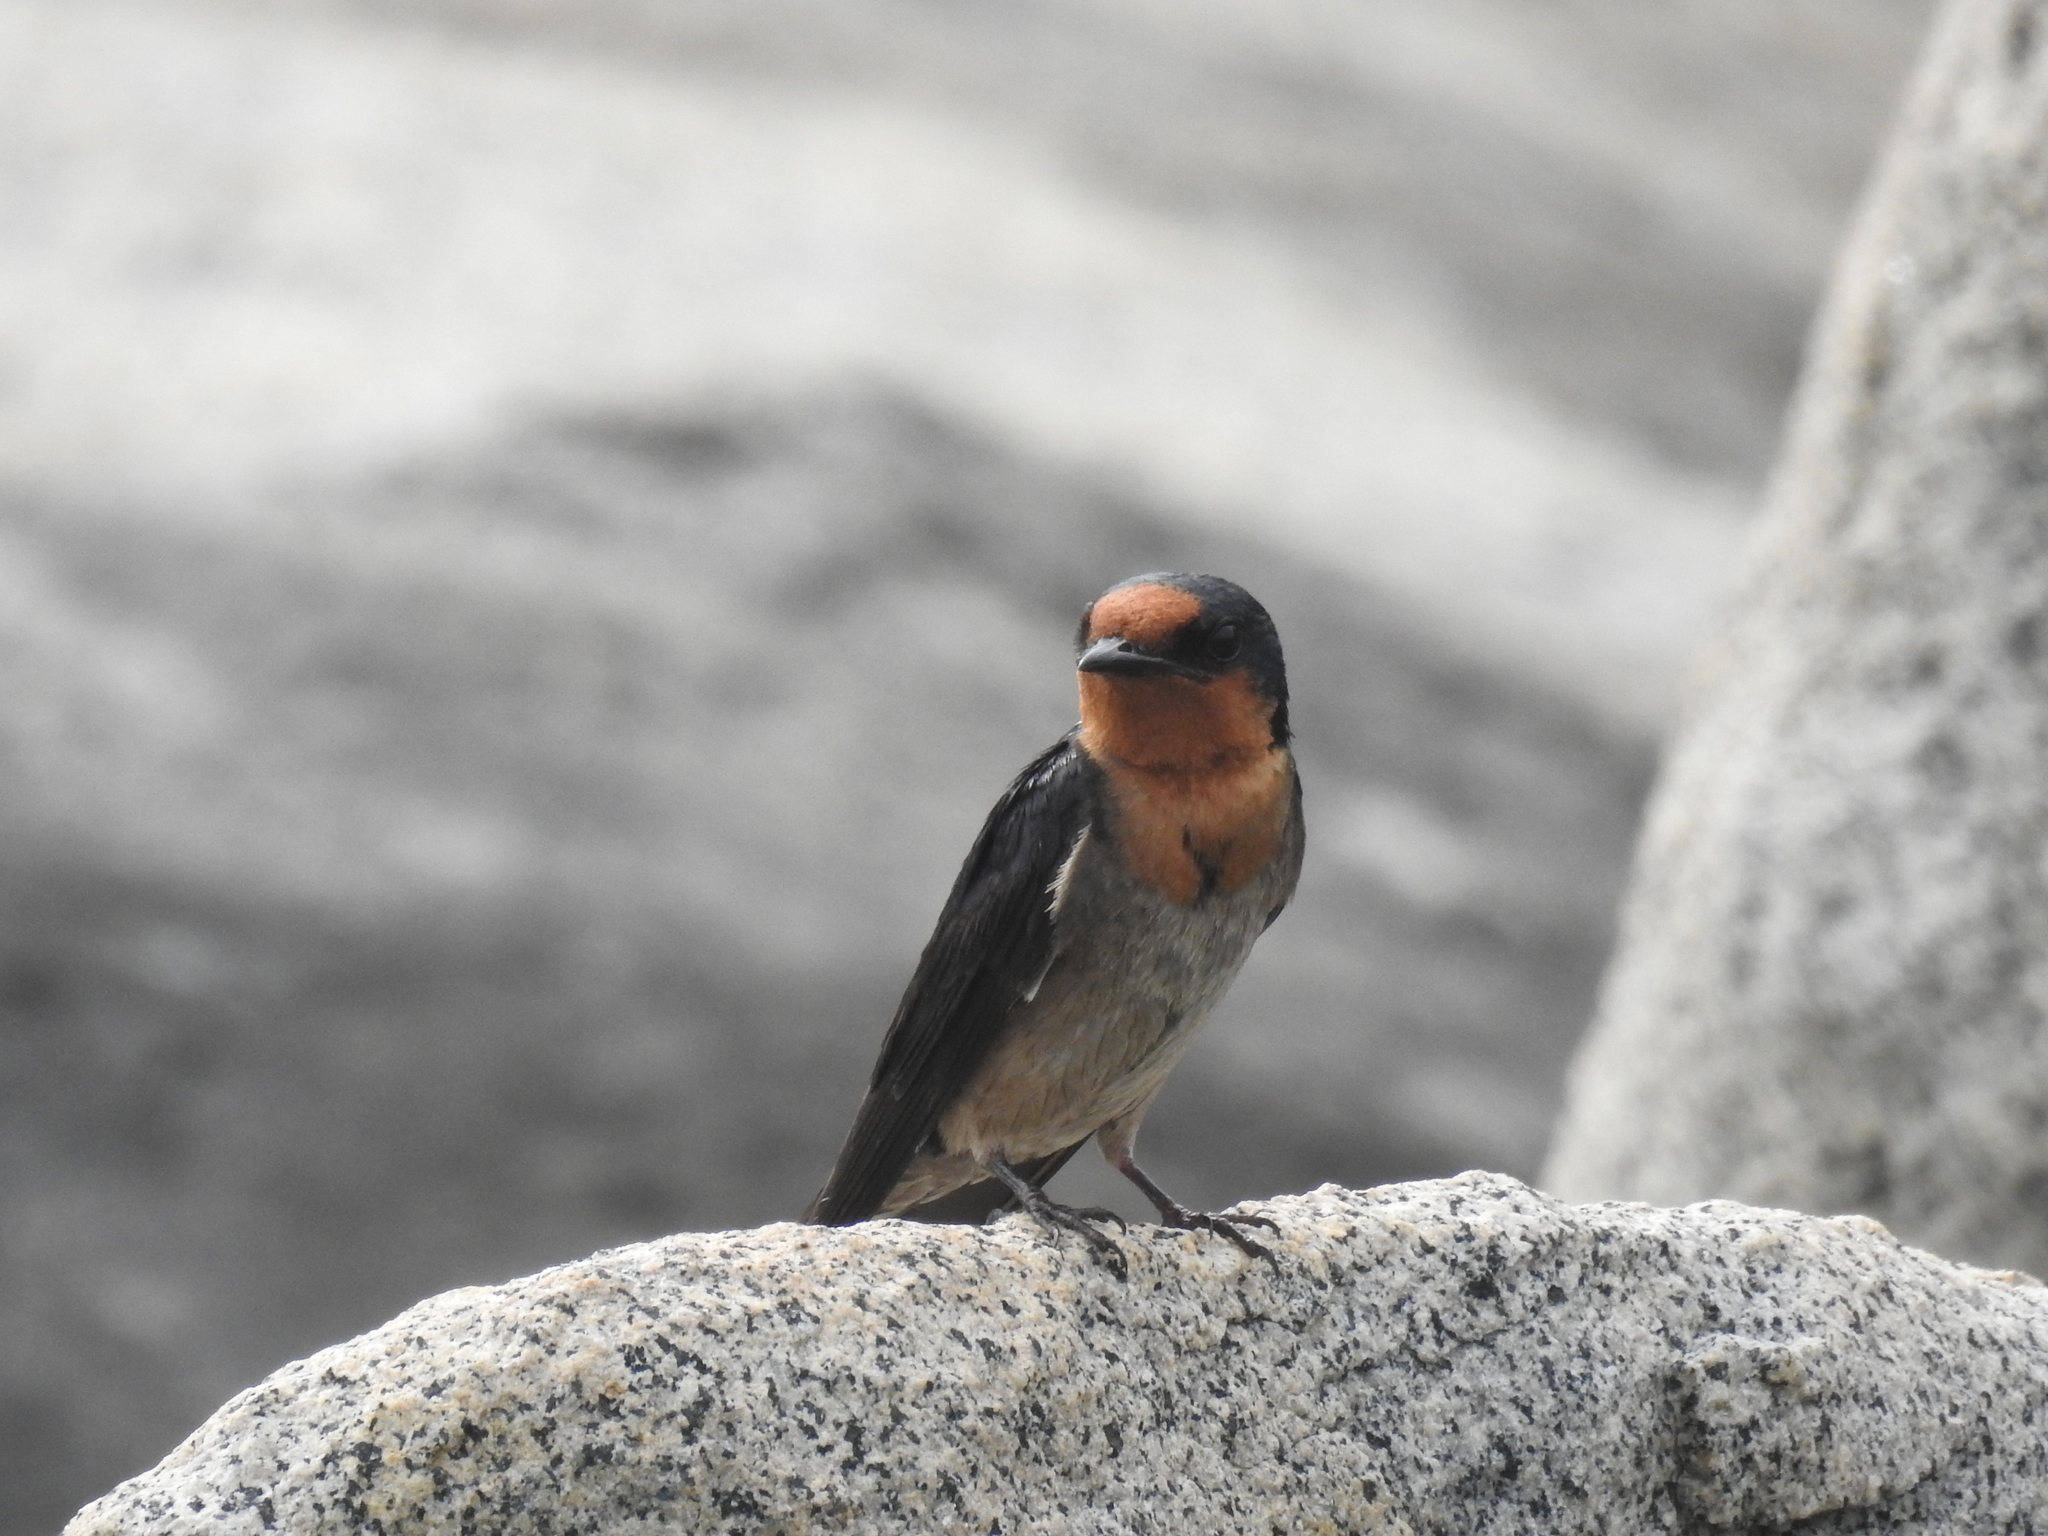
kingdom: Animalia
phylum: Chordata
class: Aves
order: Passeriformes
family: Hirundinidae
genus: Hirundo
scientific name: Hirundo tahitica
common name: Pacific swallow
